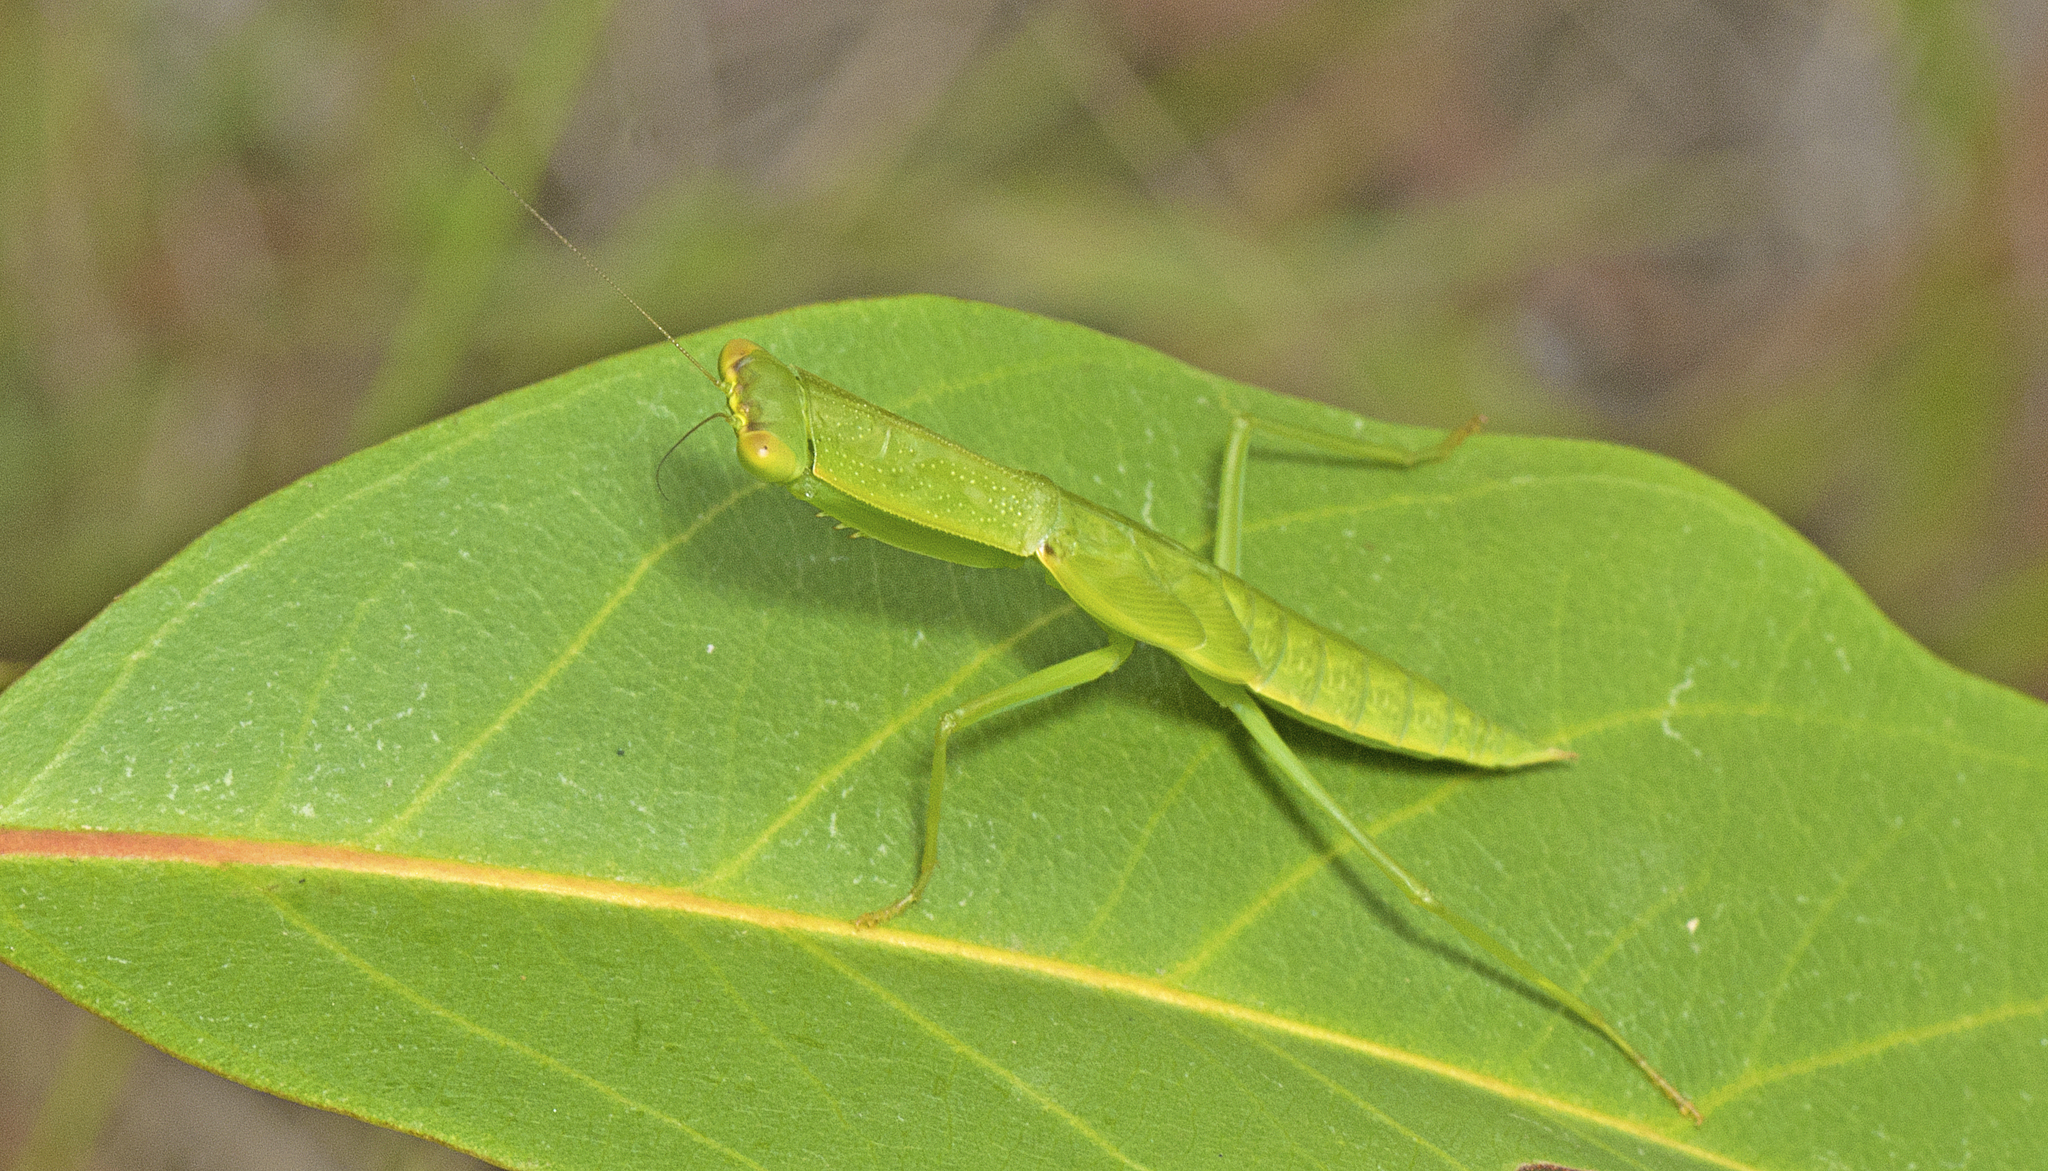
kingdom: Animalia
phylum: Arthropoda
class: Insecta
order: Mantodea
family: Mantidae
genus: Orthodera
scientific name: Orthodera ministralis
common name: Mantis
